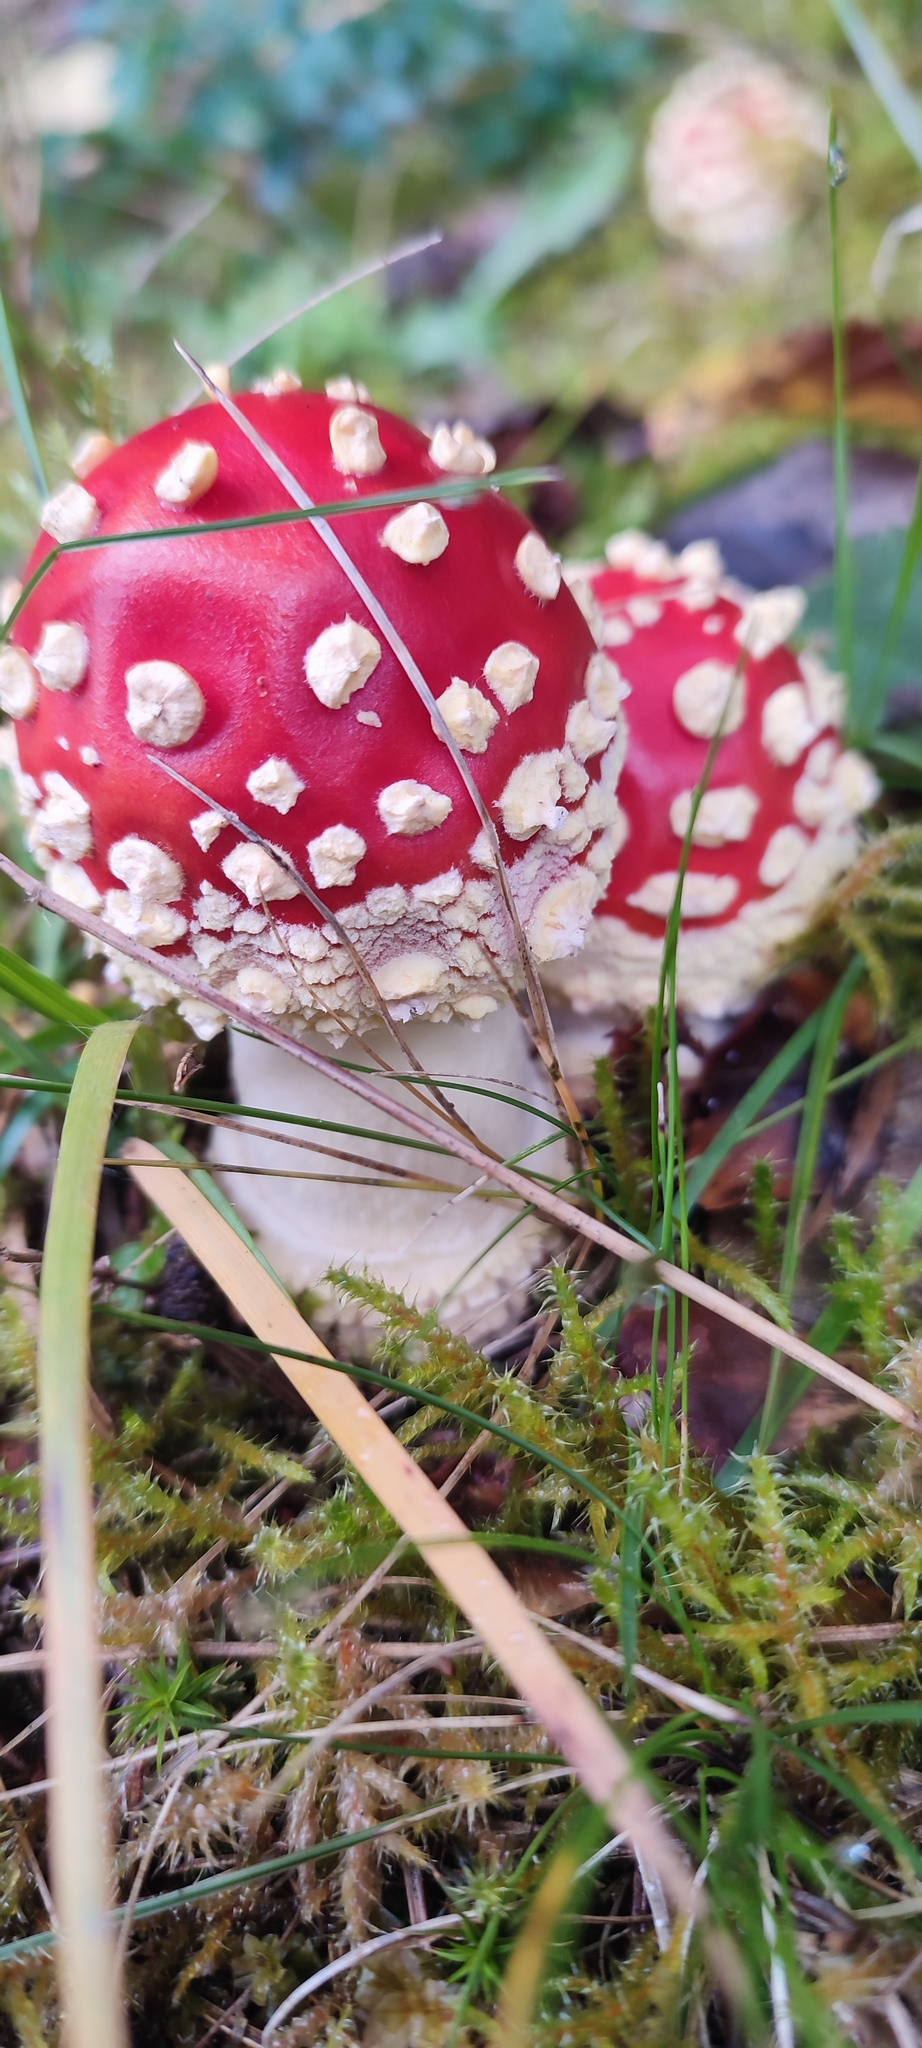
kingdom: Fungi
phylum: Basidiomycota
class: Agaricomycetes
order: Agaricales
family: Amanitaceae
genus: Amanita
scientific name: Amanita muscaria
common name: Fly agaric
